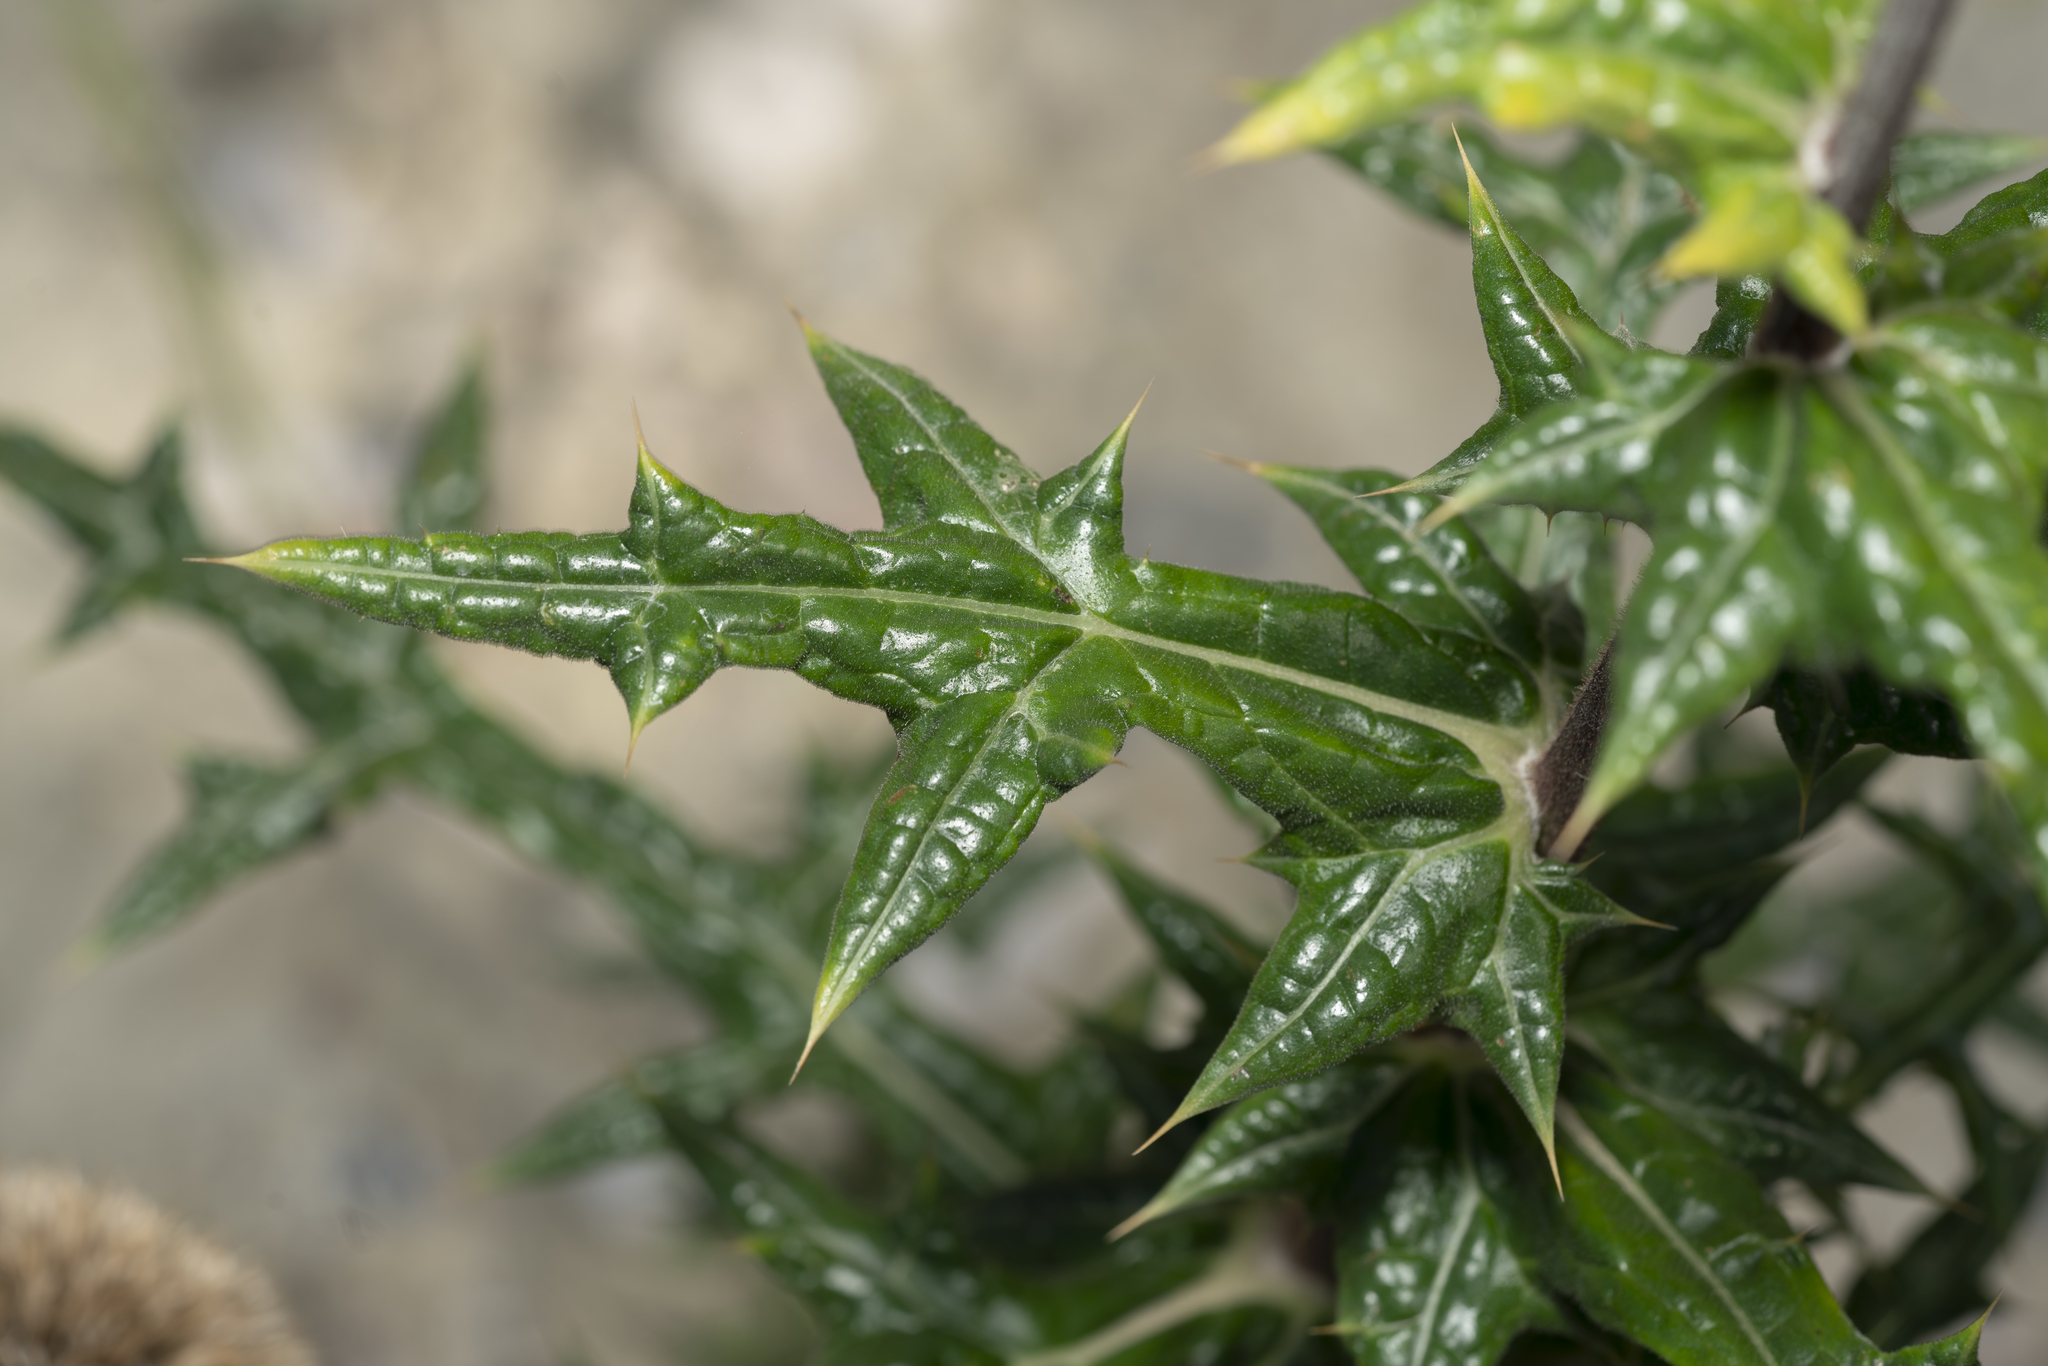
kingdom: Plantae
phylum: Tracheophyta
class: Magnoliopsida
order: Asterales
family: Asteraceae
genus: Echinops
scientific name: Echinops spinosissimus
